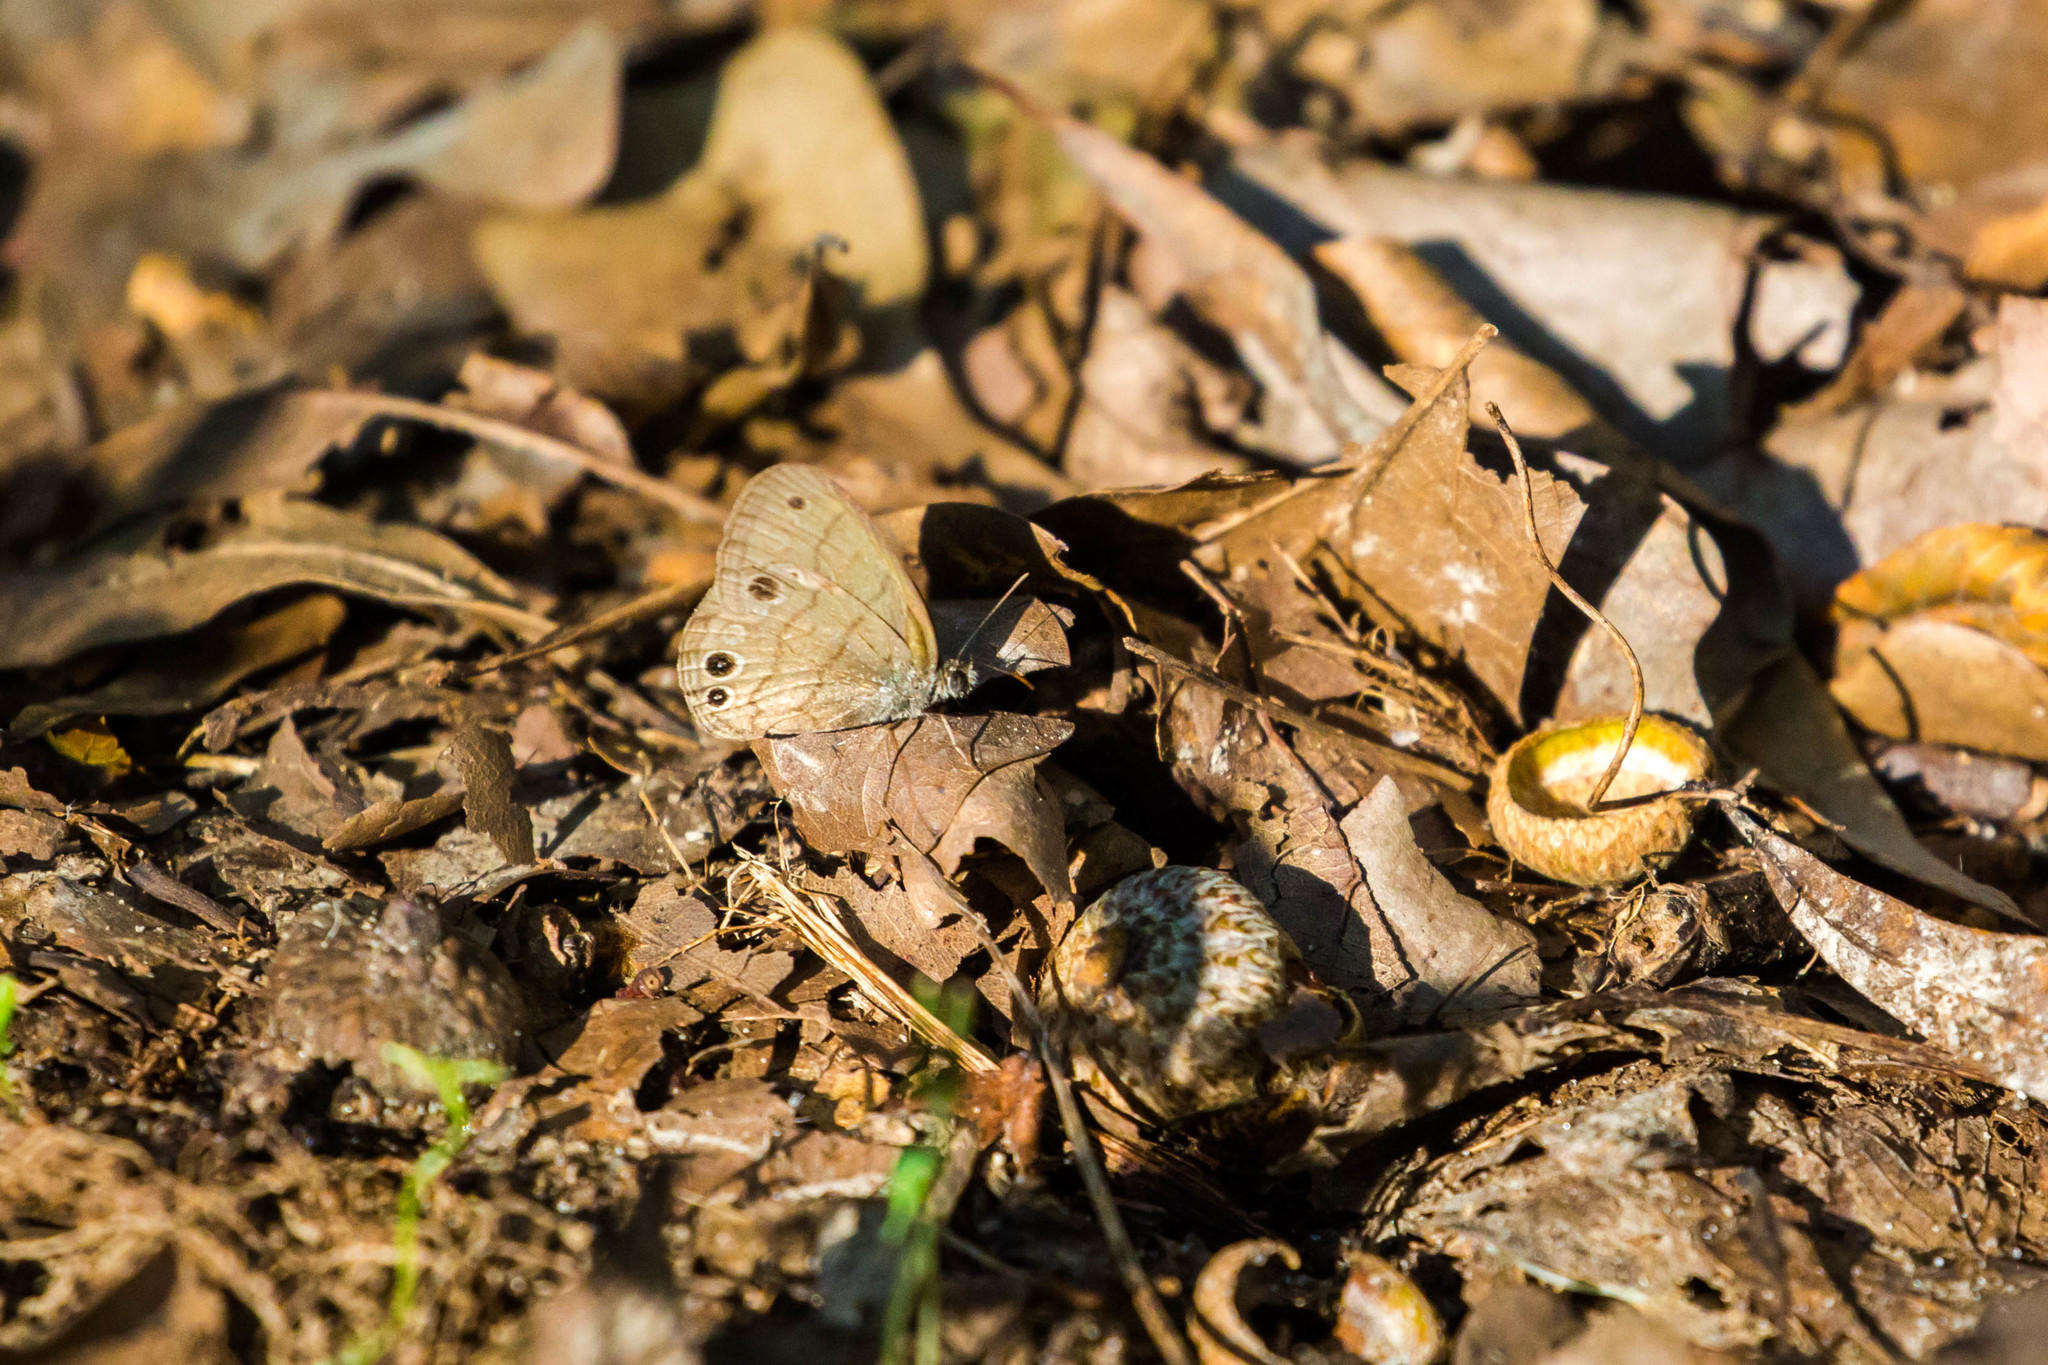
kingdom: Animalia
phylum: Arthropoda
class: Insecta
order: Lepidoptera
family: Nymphalidae
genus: Hermeuptychia
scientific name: Hermeuptychia hermes
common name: Hermes satyr
